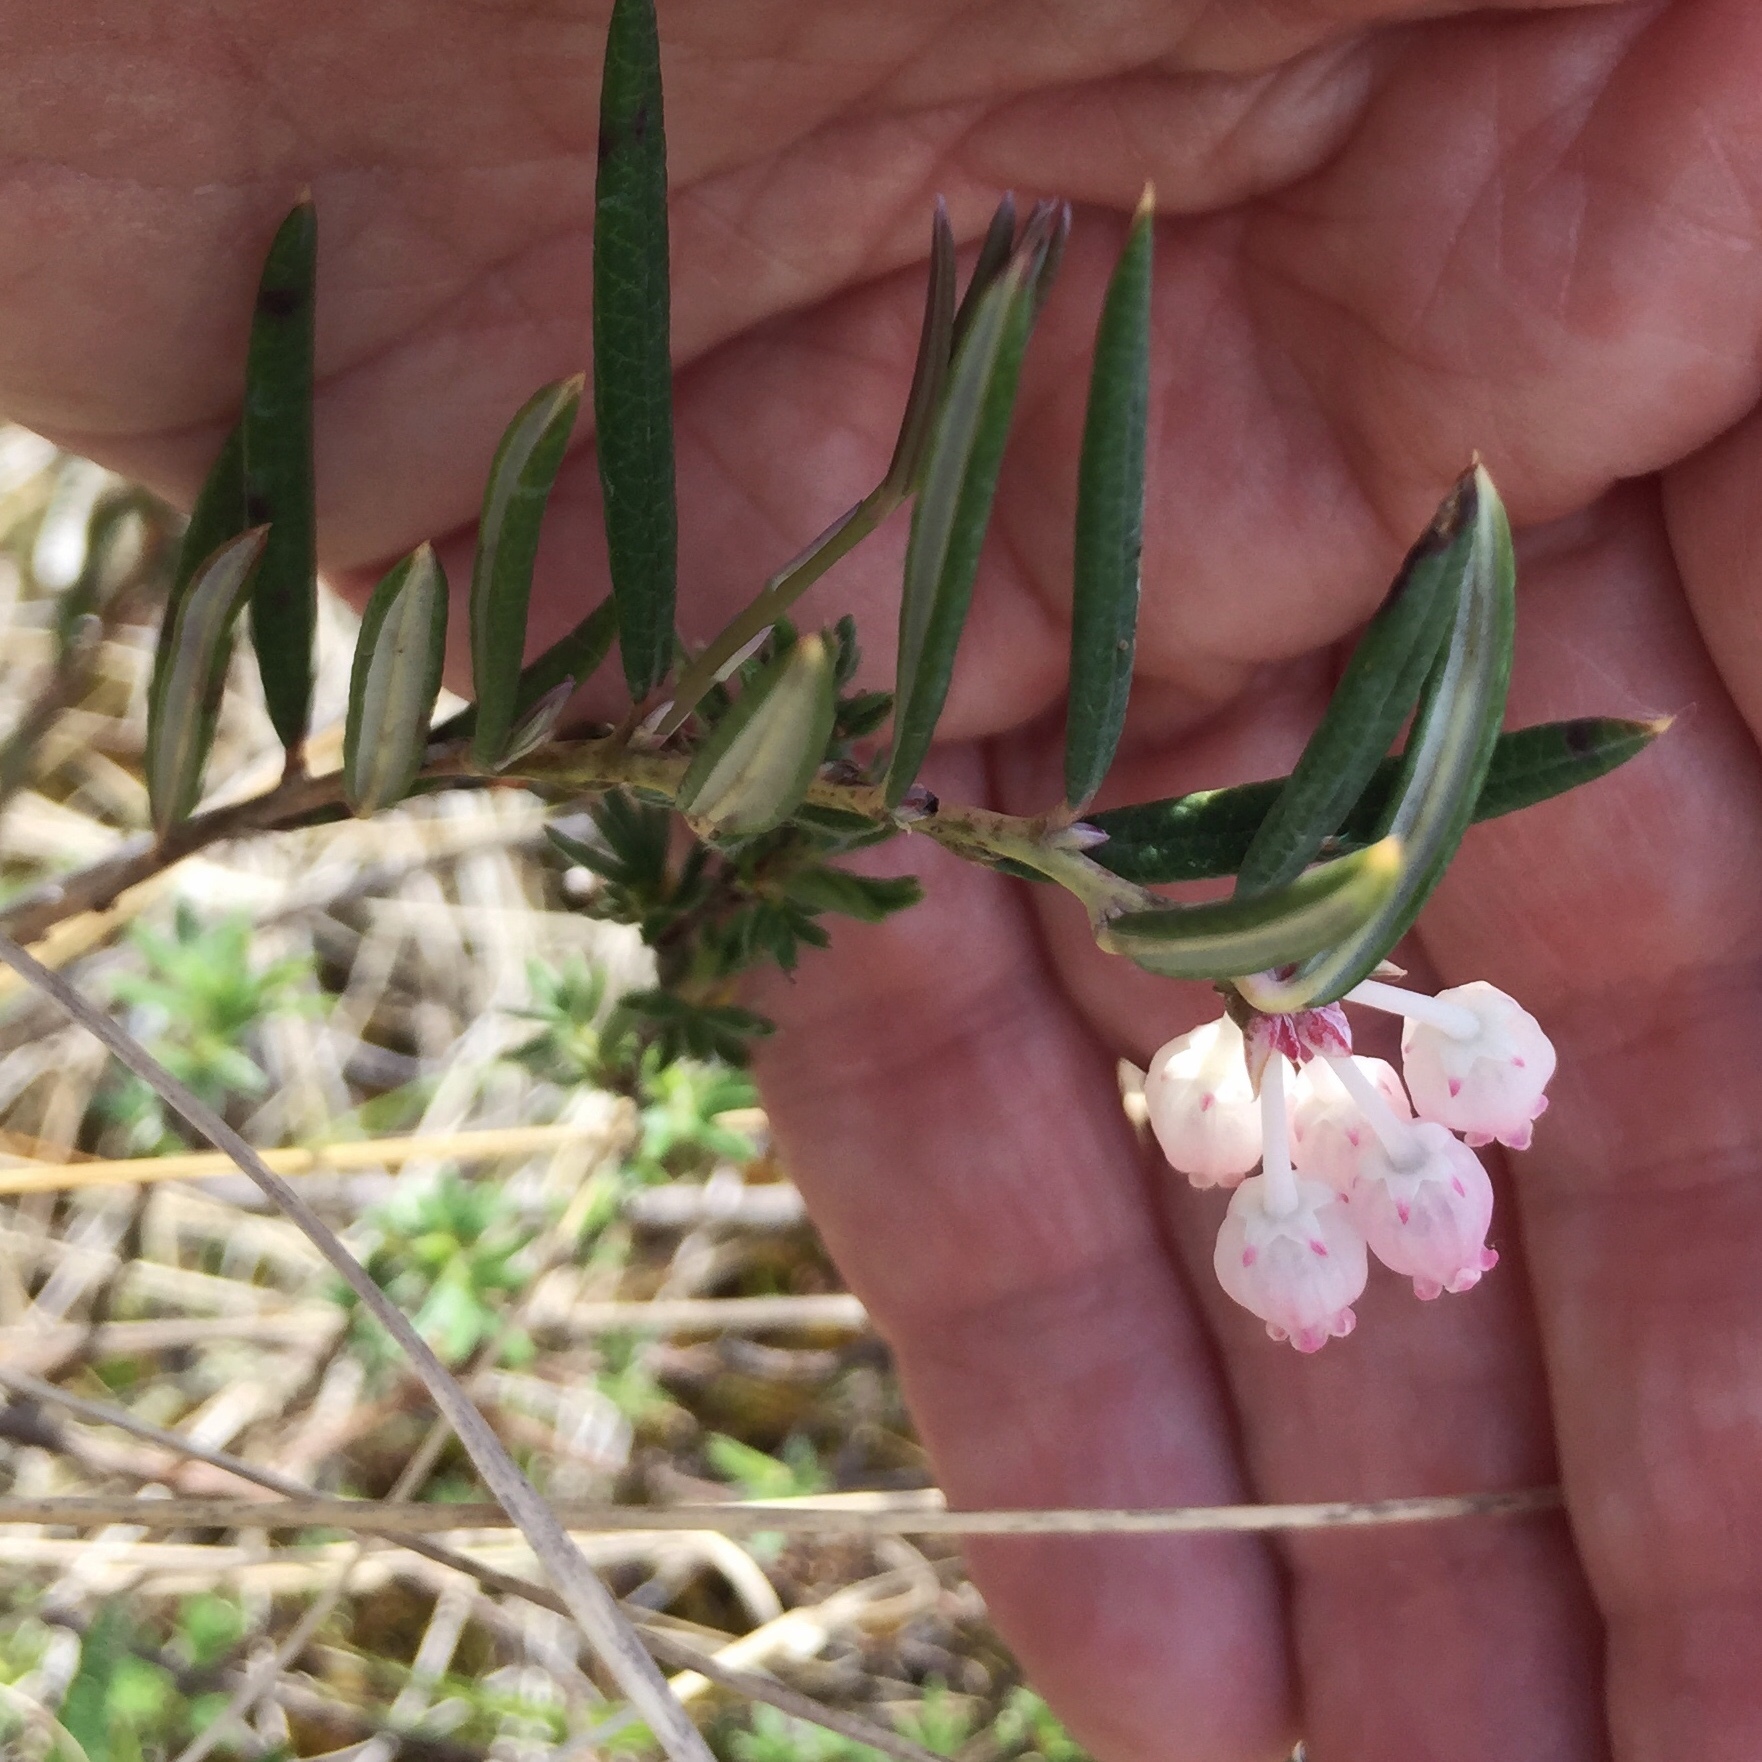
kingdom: Plantae
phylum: Tracheophyta
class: Magnoliopsida
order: Ericales
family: Ericaceae
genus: Andromeda
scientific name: Andromeda polifolia
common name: Bog-rosemary
